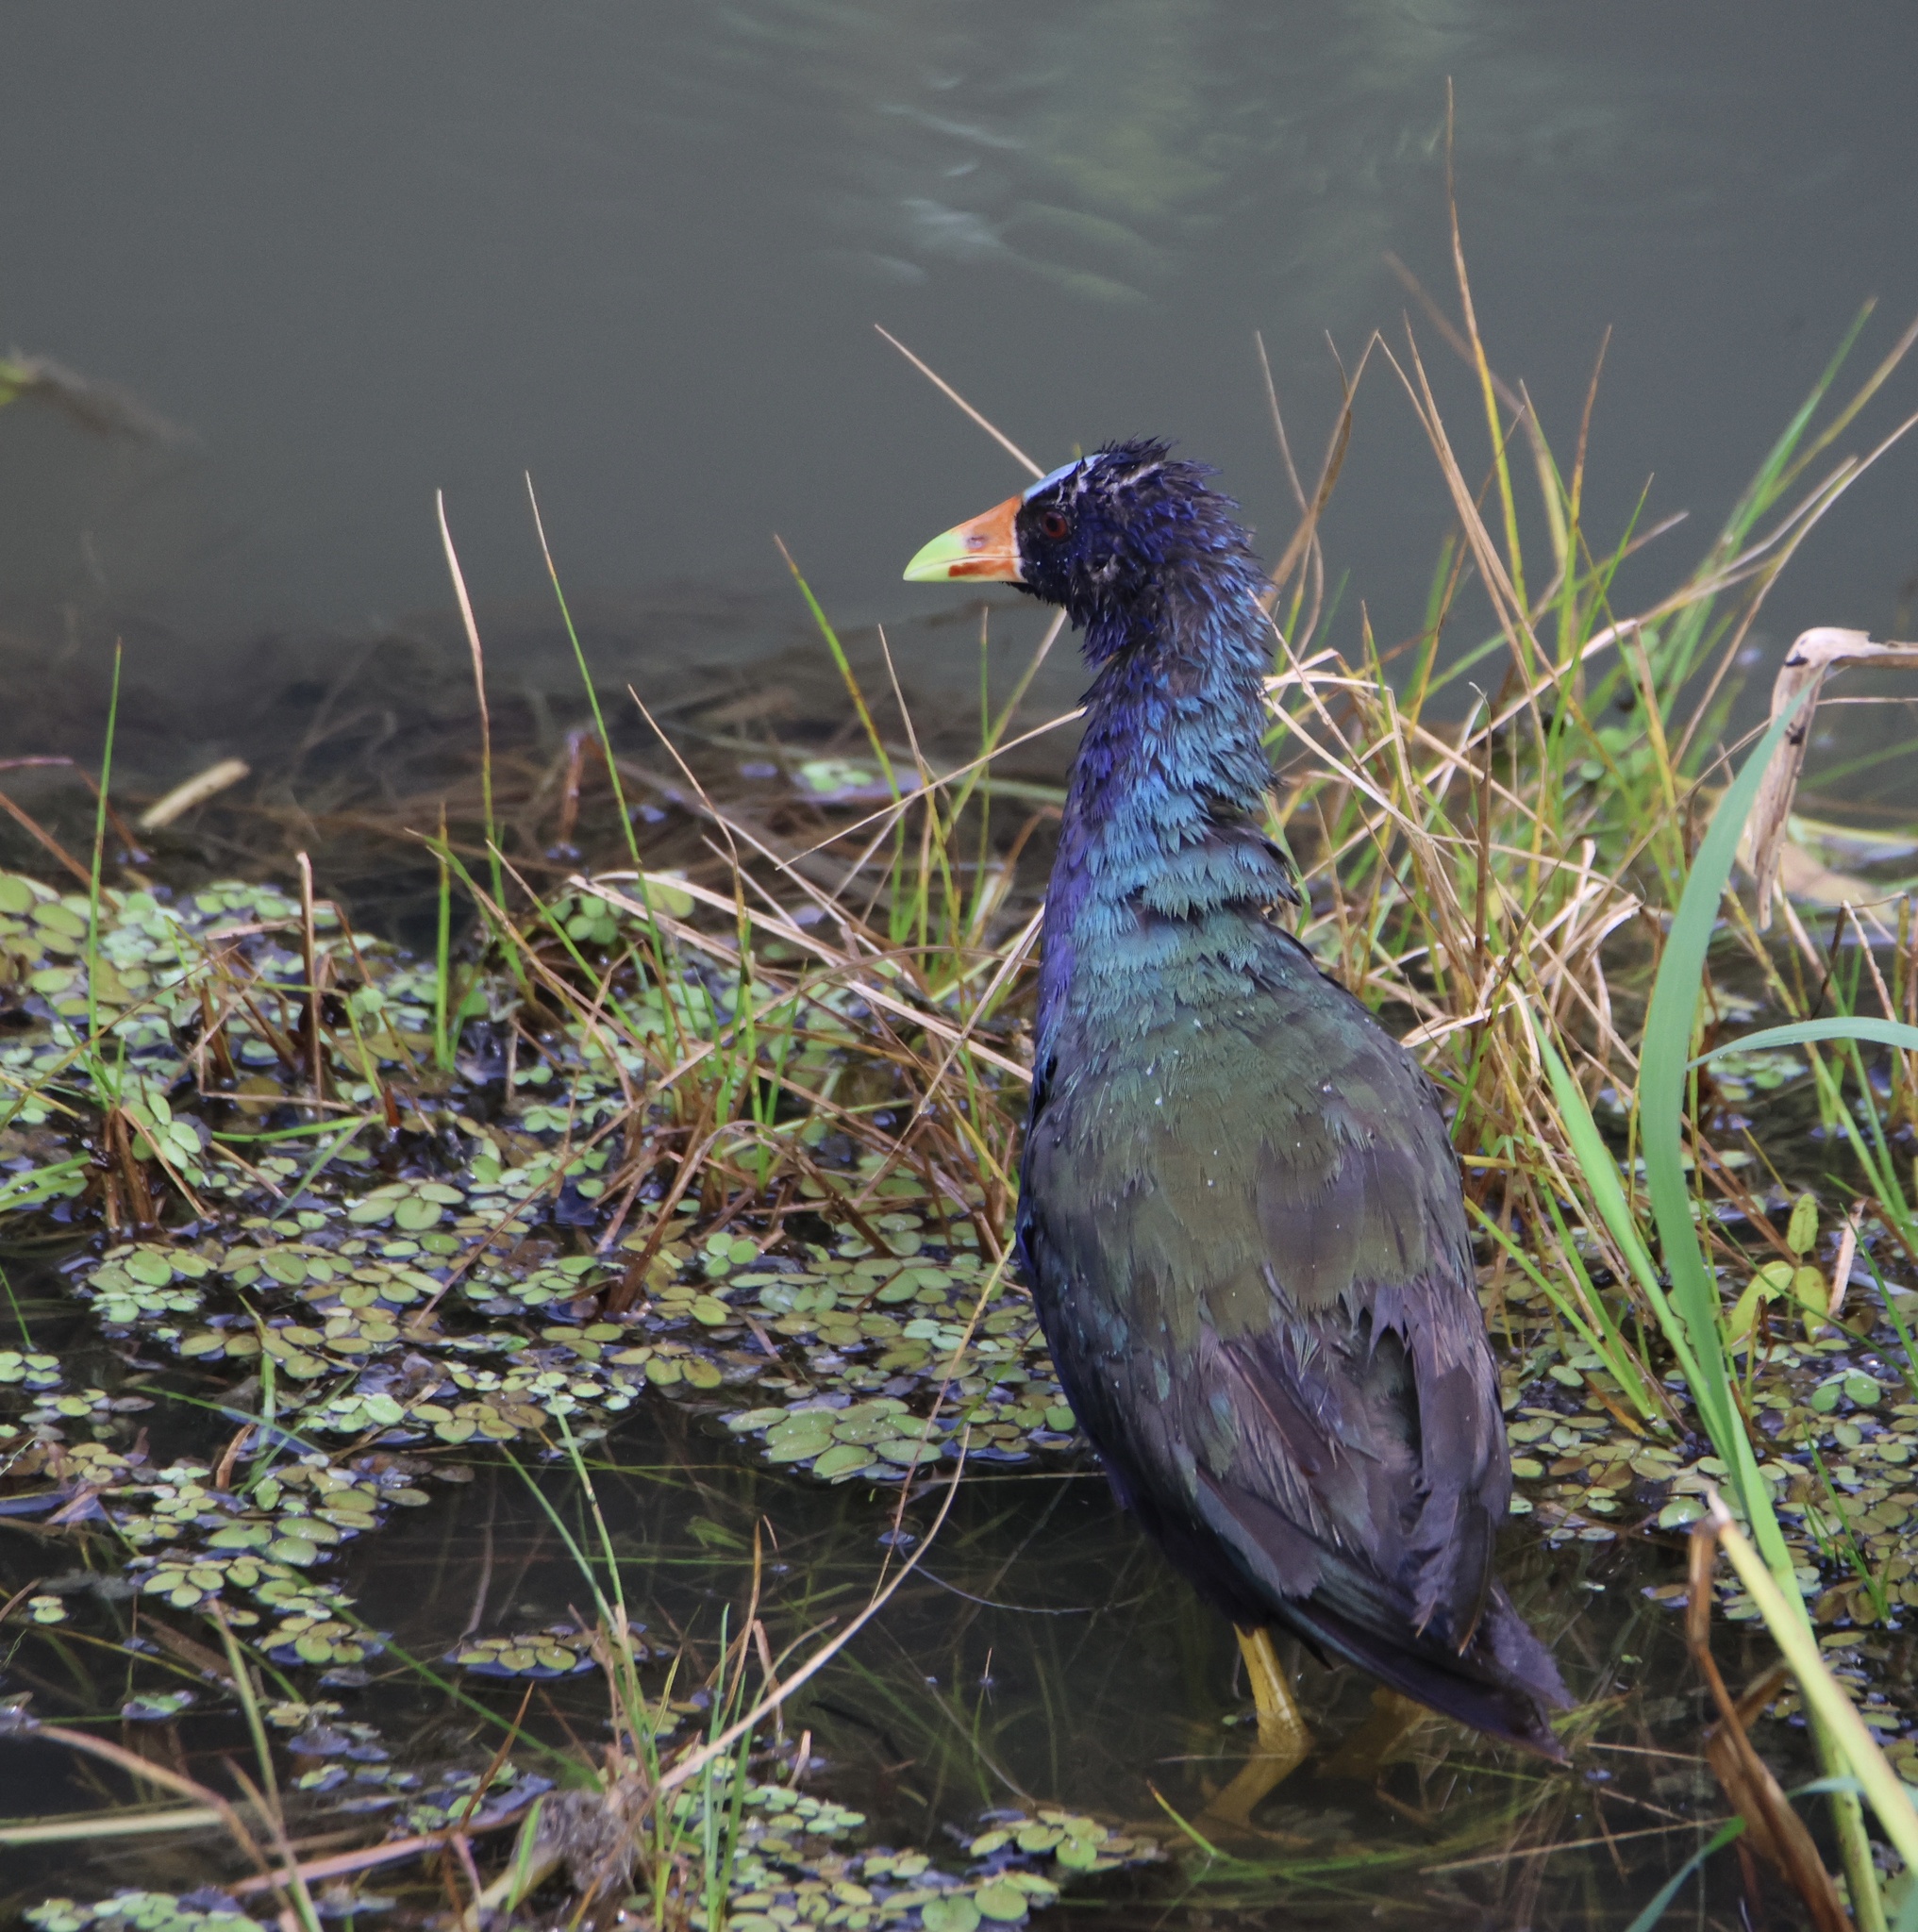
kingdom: Animalia
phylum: Chordata
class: Aves
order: Gruiformes
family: Rallidae
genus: Porphyrio
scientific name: Porphyrio martinica
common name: Purple gallinule
